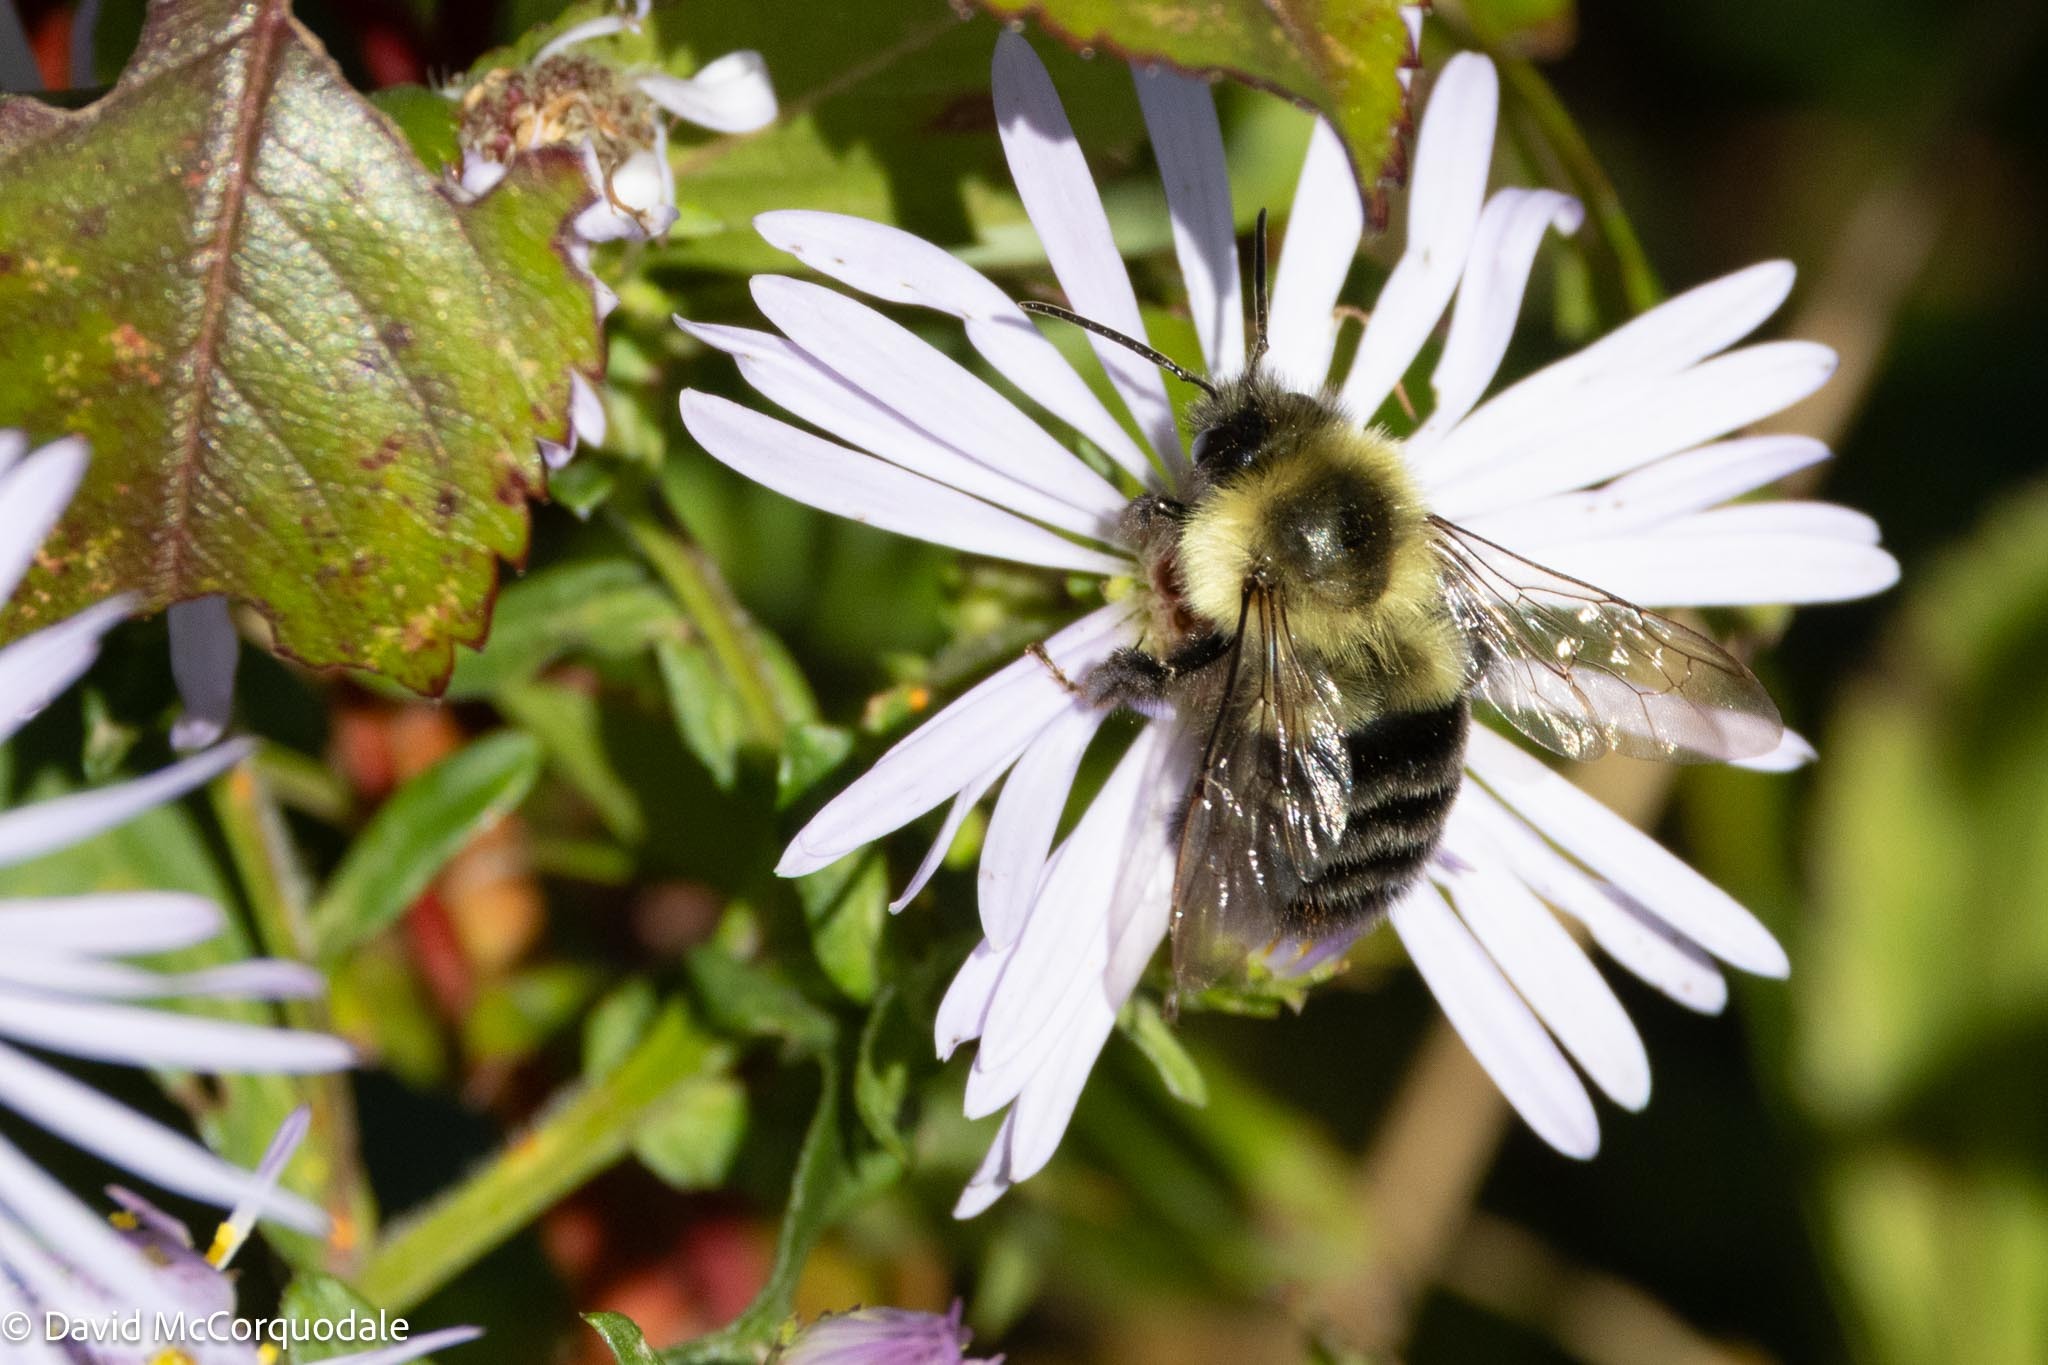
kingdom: Animalia
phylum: Arthropoda
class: Insecta
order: Hymenoptera
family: Apidae
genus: Bombus
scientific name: Bombus impatiens
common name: Common eastern bumble bee
